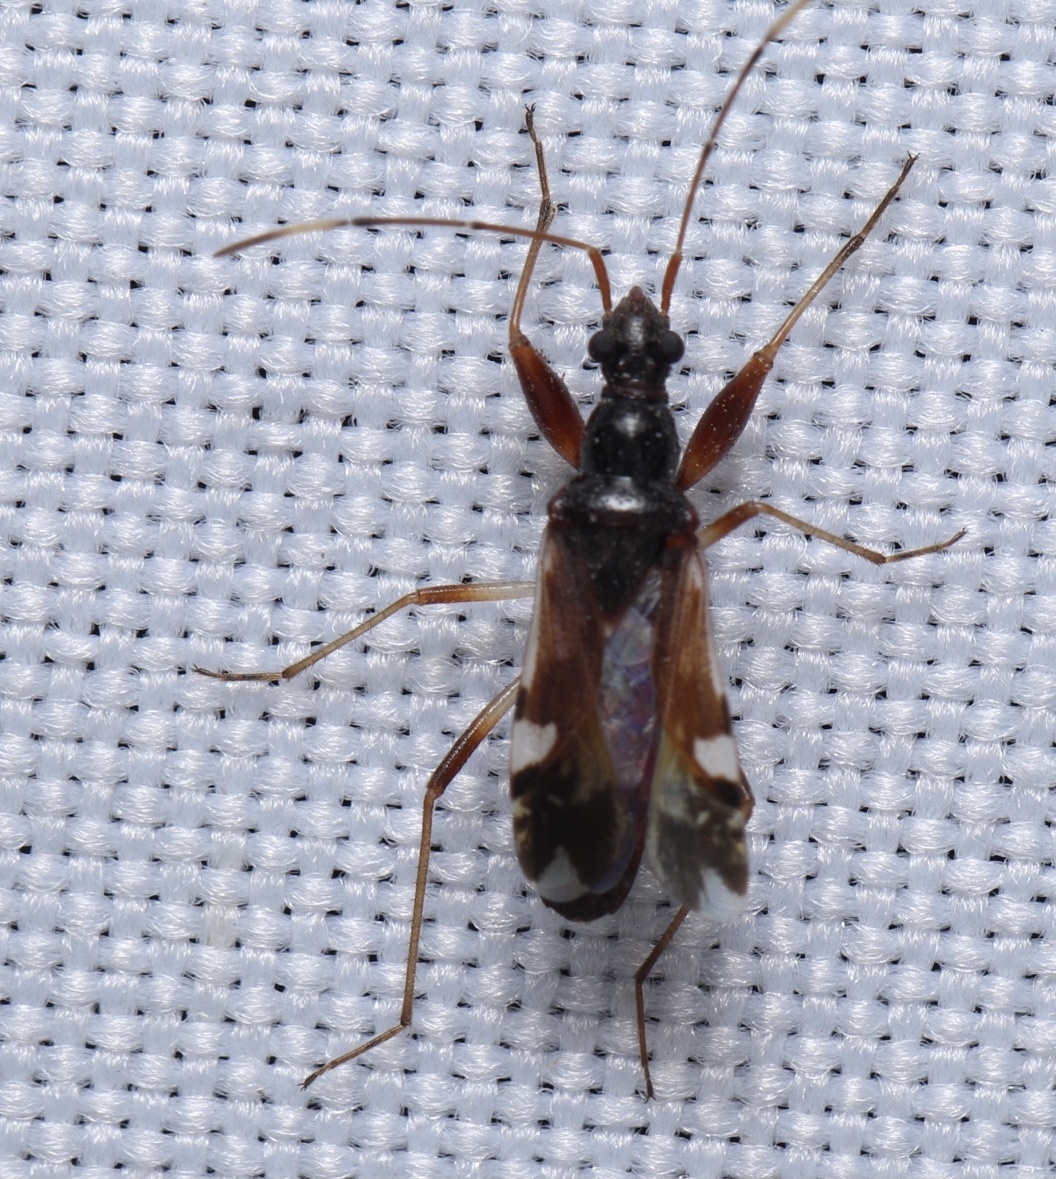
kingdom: Animalia
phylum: Arthropoda
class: Insecta
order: Hemiptera
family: Rhyparochromidae
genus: Pseudopamera
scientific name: Pseudopamera aurivilliana
